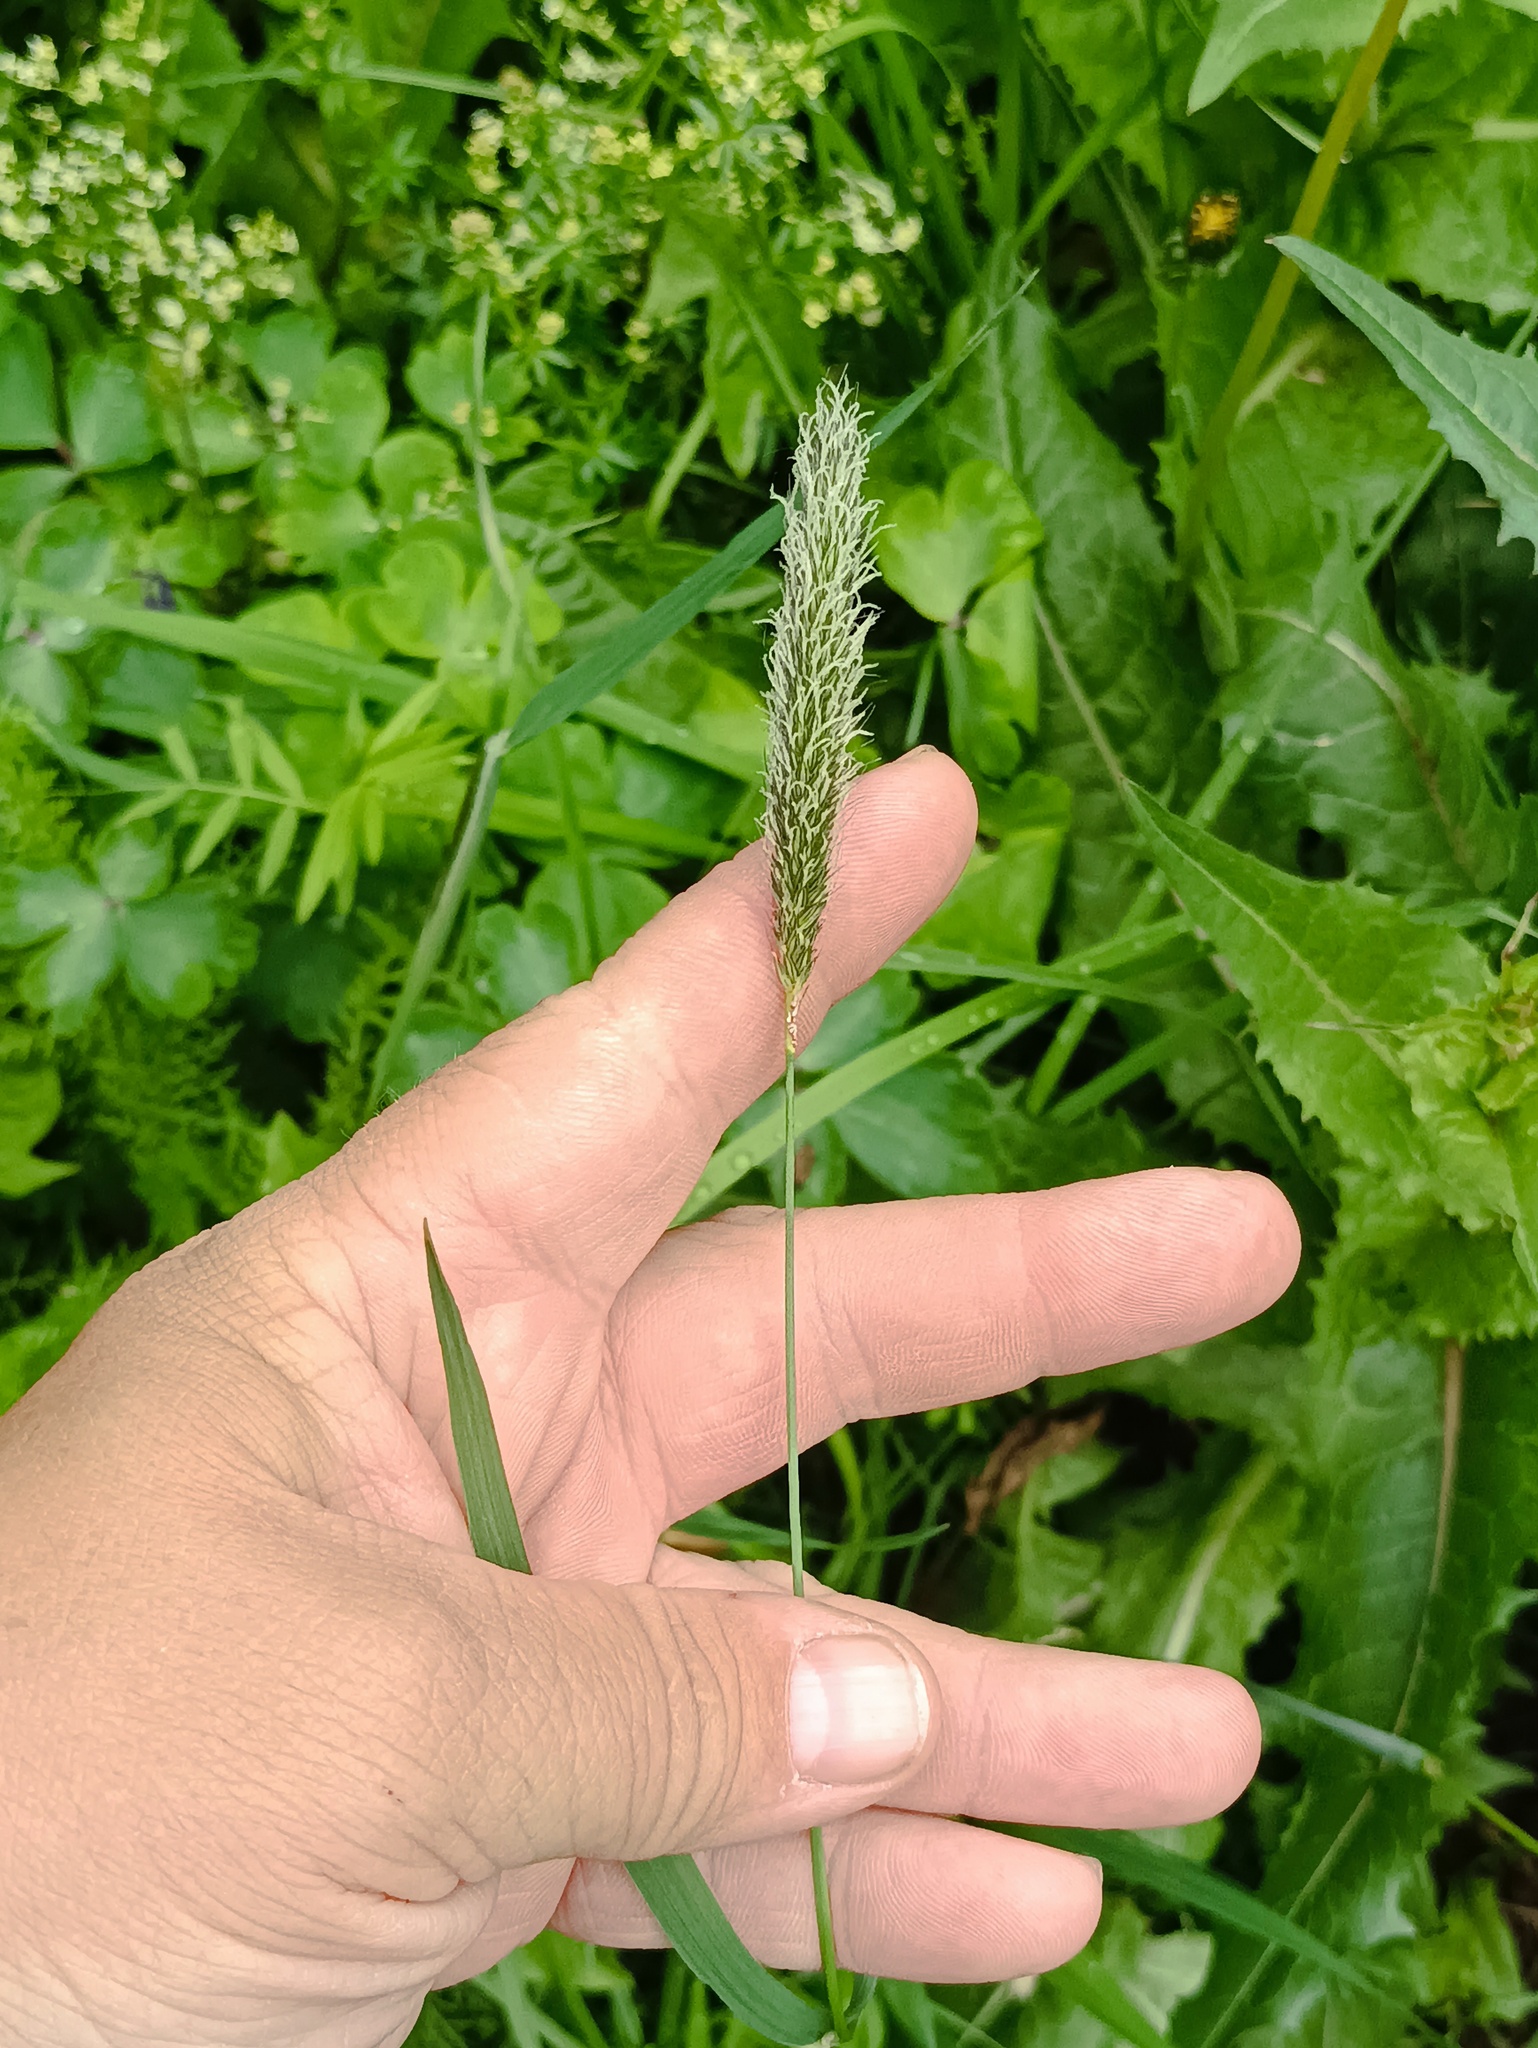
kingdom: Plantae
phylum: Tracheophyta
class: Liliopsida
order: Poales
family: Poaceae
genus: Alopecurus
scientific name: Alopecurus pratensis
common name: Meadow foxtail
